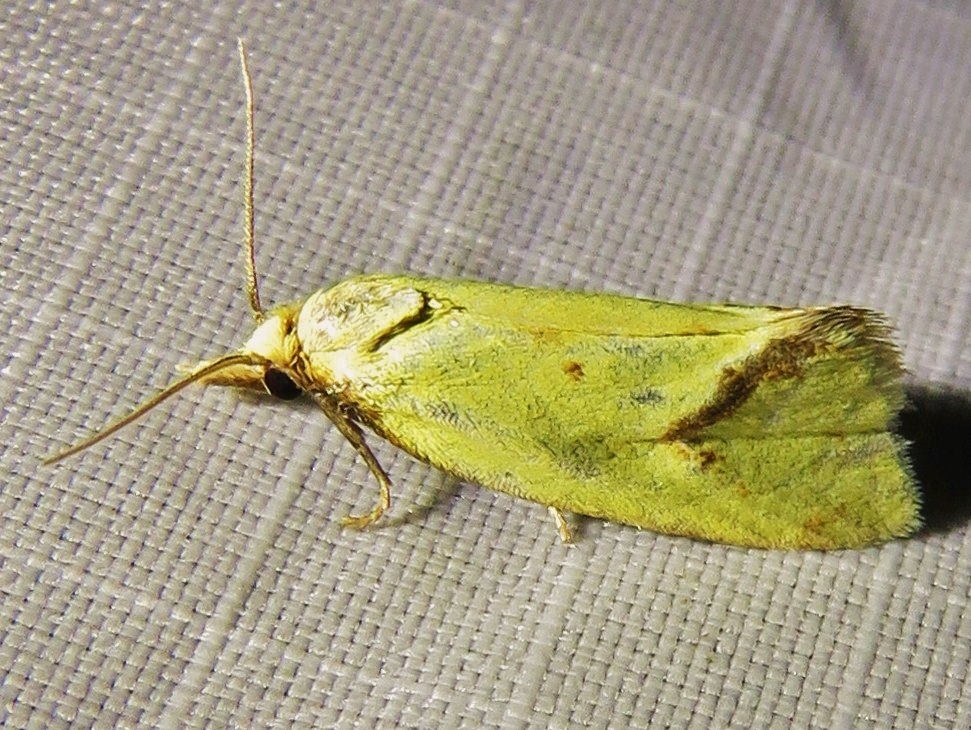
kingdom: Animalia
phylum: Arthropoda
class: Insecta
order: Lepidoptera
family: Tortricidae
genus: Agapeta
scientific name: Agapeta hamana
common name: Common yellow conch
